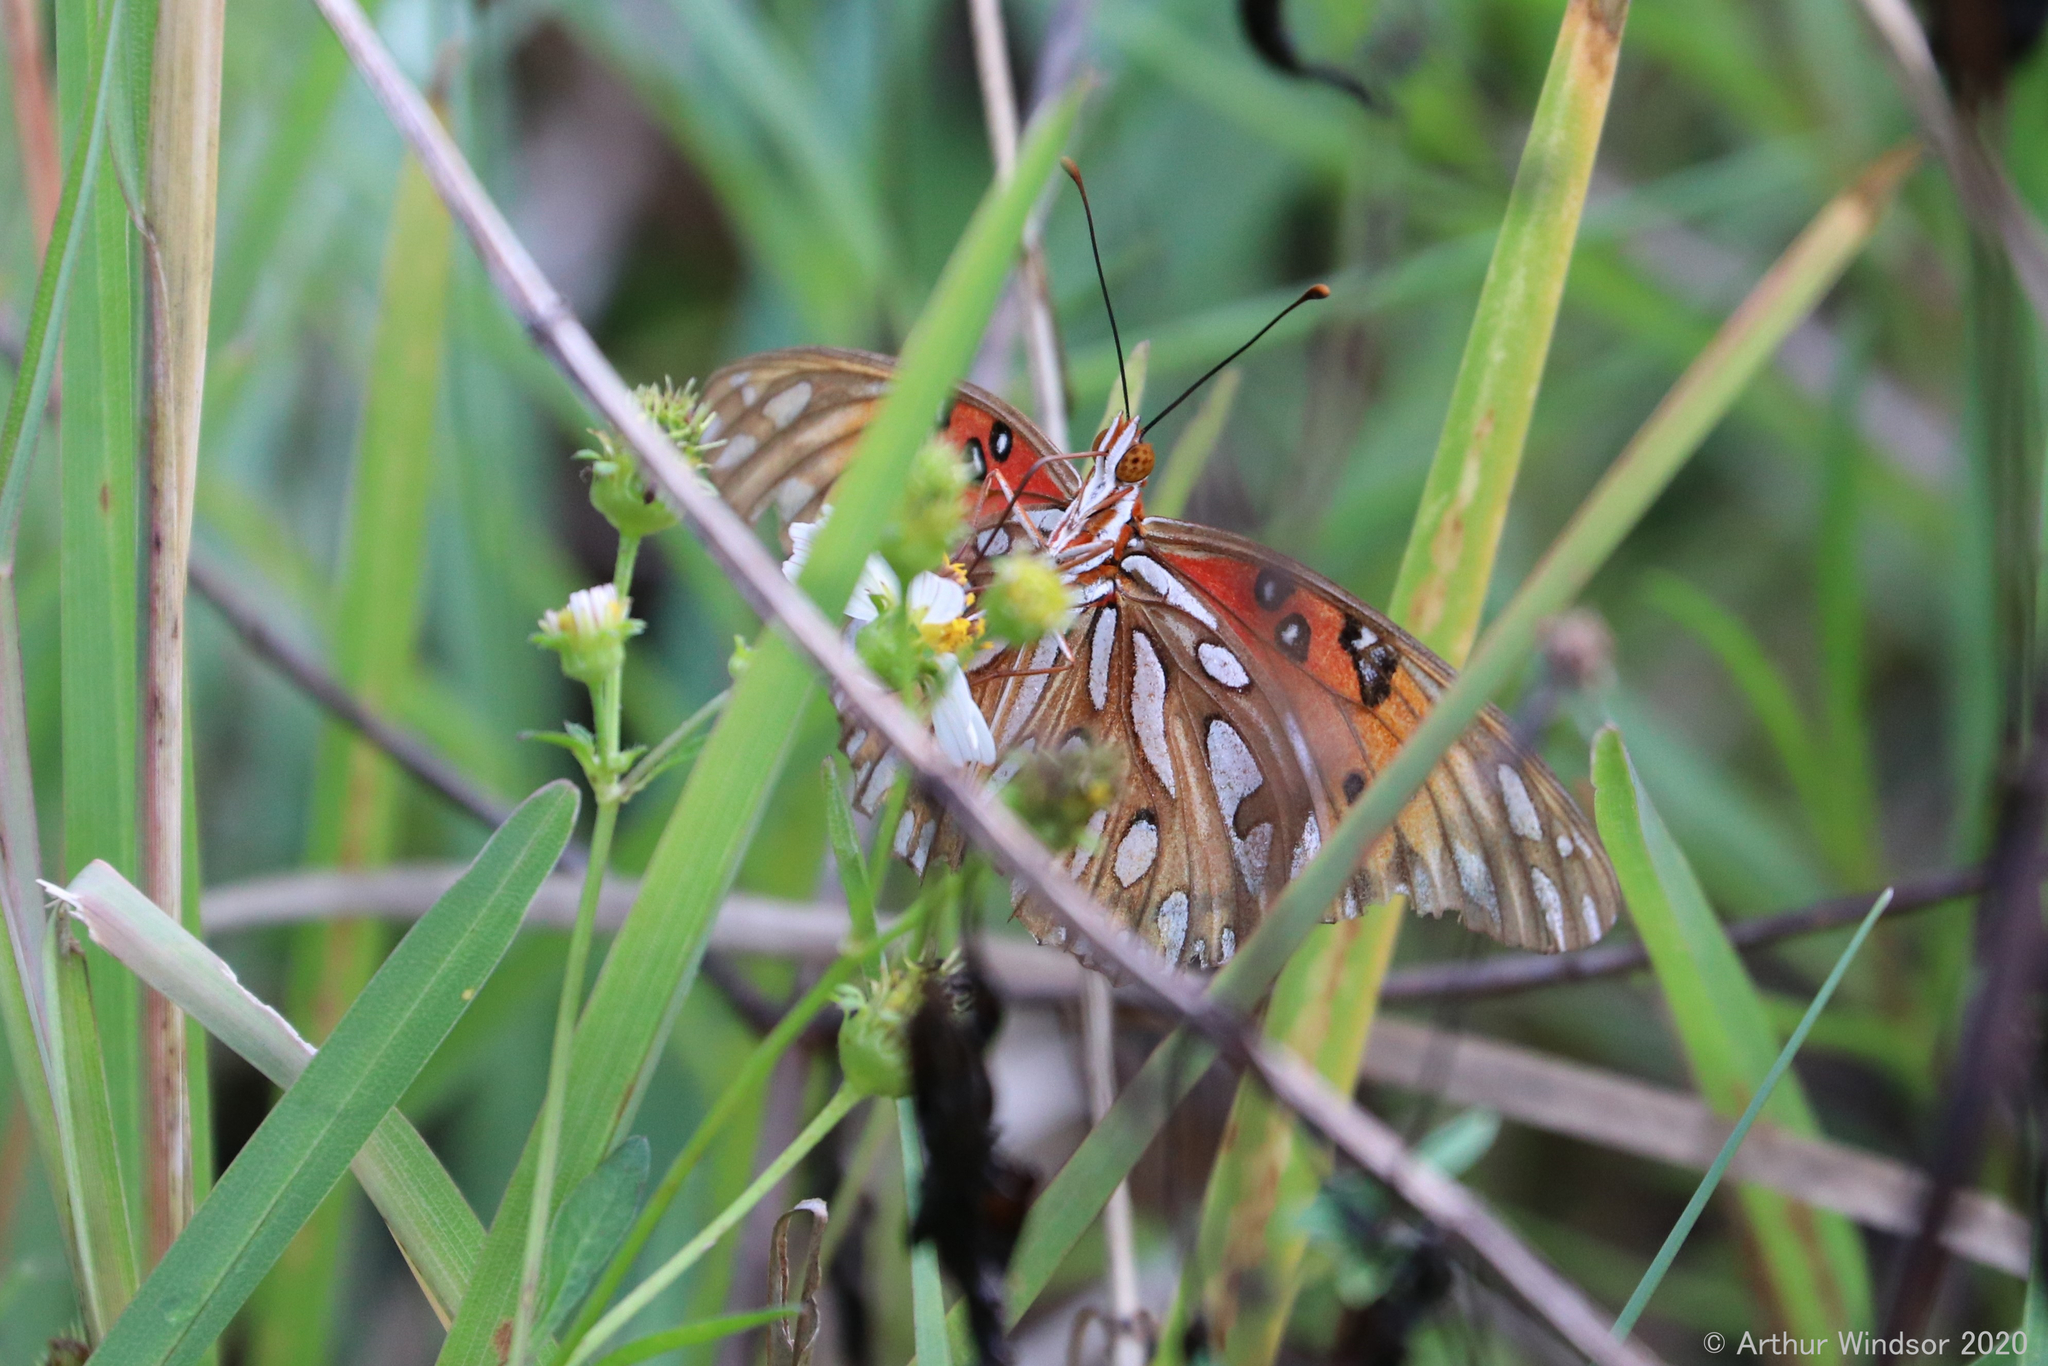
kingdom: Animalia
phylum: Arthropoda
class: Insecta
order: Lepidoptera
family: Nymphalidae
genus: Dione
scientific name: Dione vanillae
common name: Gulf fritillary
